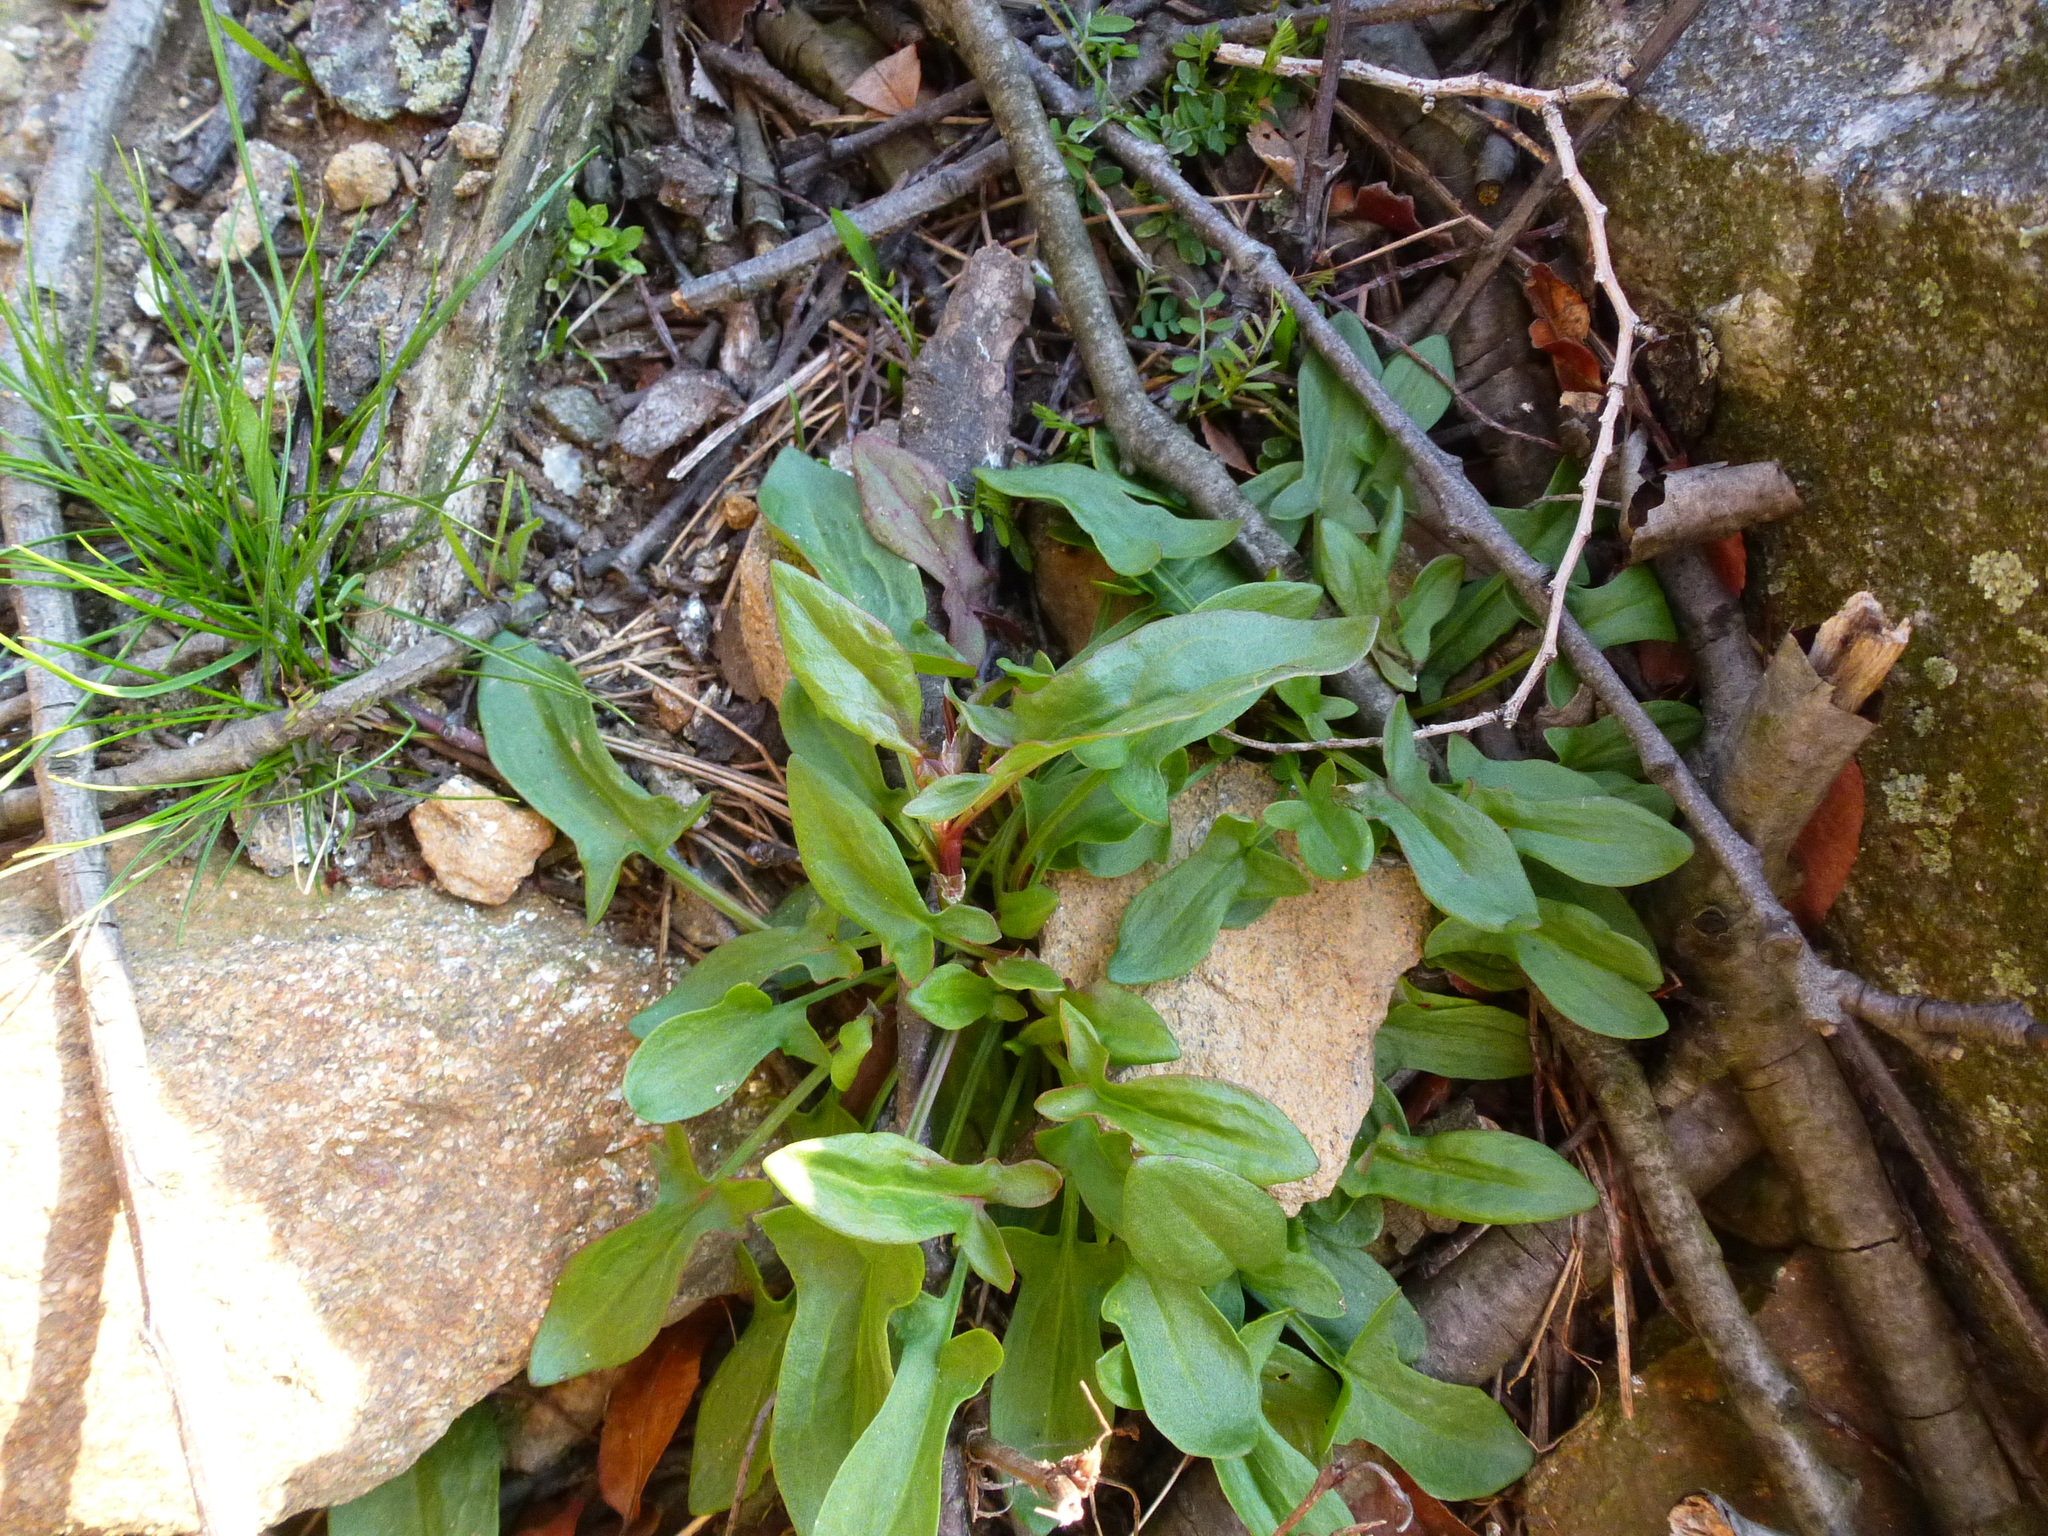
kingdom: Plantae
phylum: Tracheophyta
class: Magnoliopsida
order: Caryophyllales
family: Polygonaceae
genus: Rumex
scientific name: Rumex acetosella
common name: Common sheep sorrel
